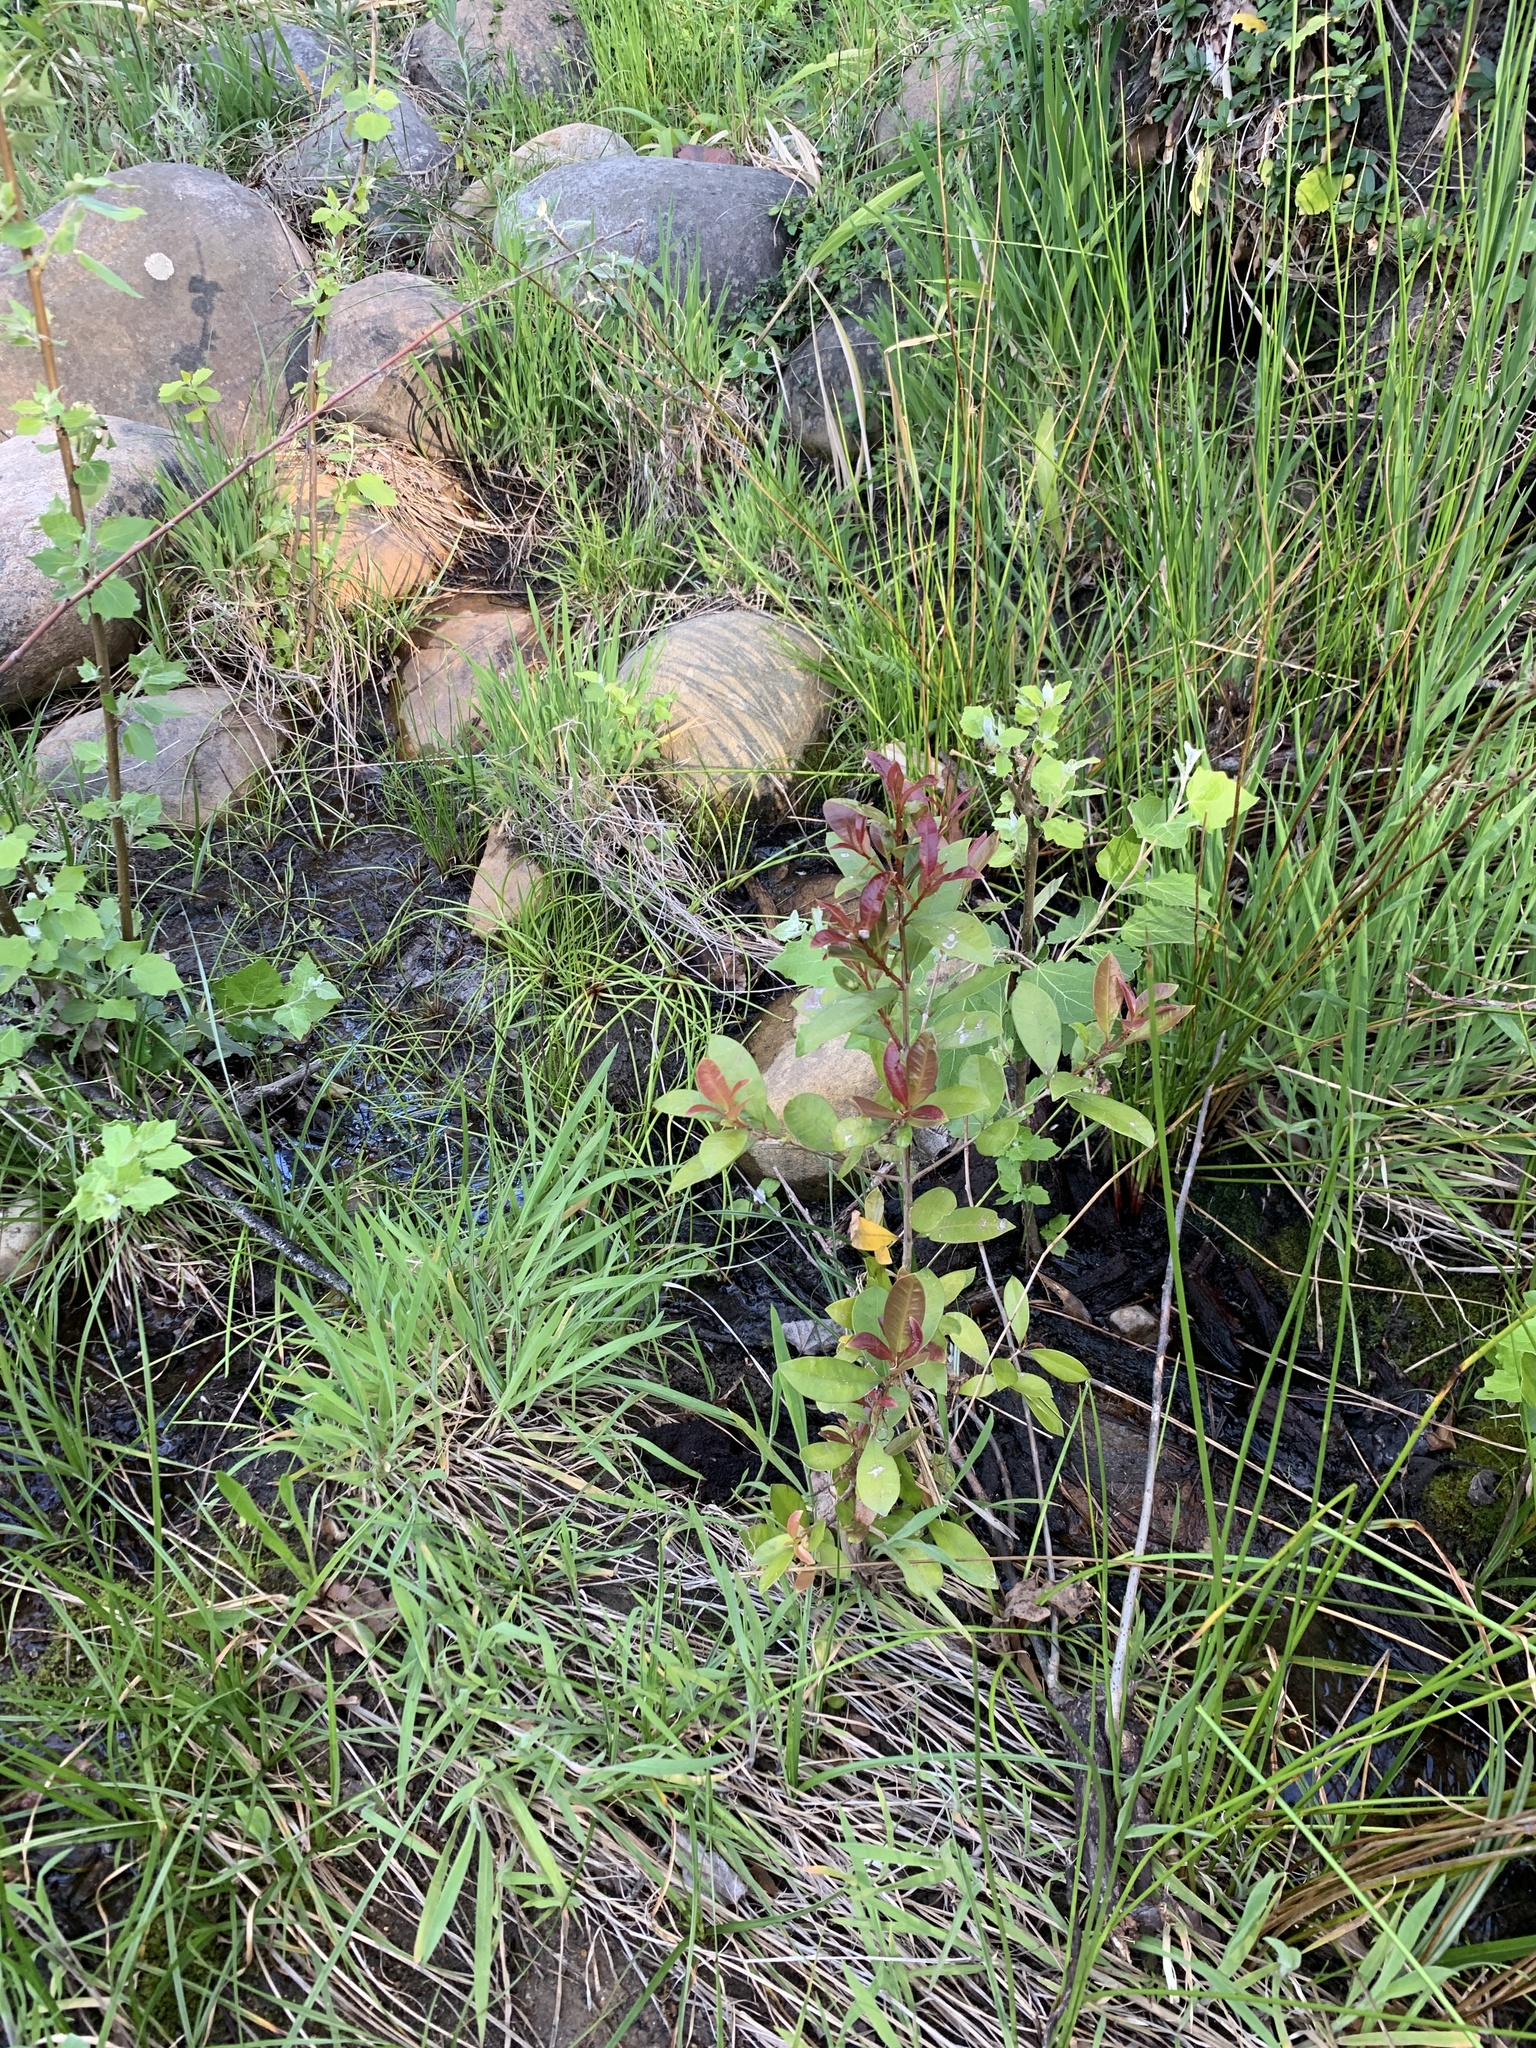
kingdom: Plantae
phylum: Tracheophyta
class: Magnoliopsida
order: Myrtales
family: Myrtaceae
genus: Syzygium
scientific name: Syzygium australe
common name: Australian brush-cherry
